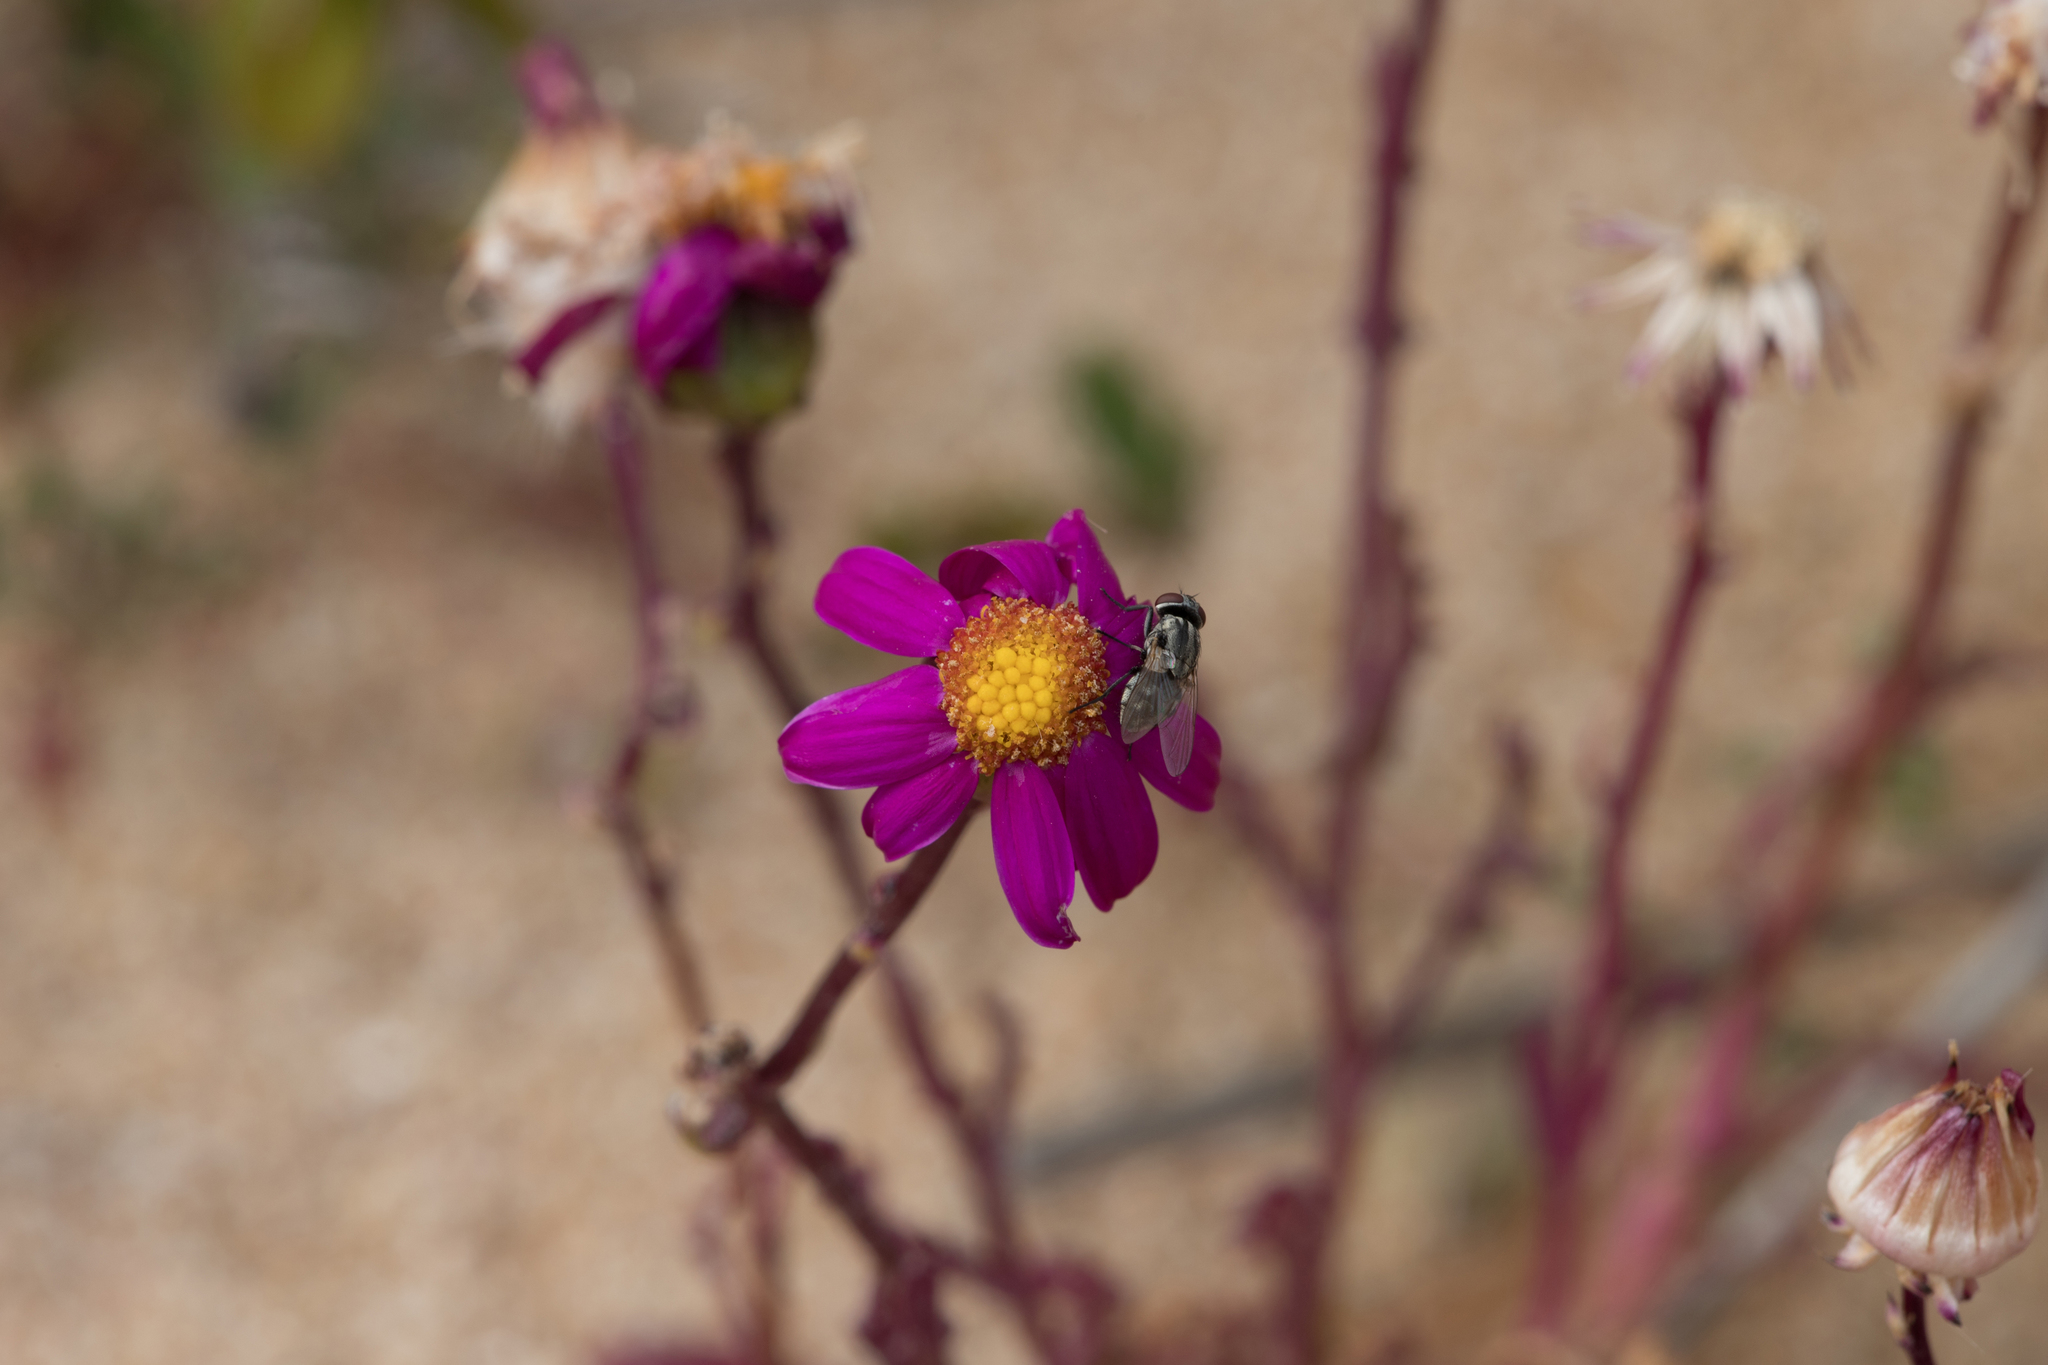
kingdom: Plantae
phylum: Tracheophyta
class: Magnoliopsida
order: Asterales
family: Asteraceae
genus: Senecio
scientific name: Senecio elegans
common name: Purple groundsel
